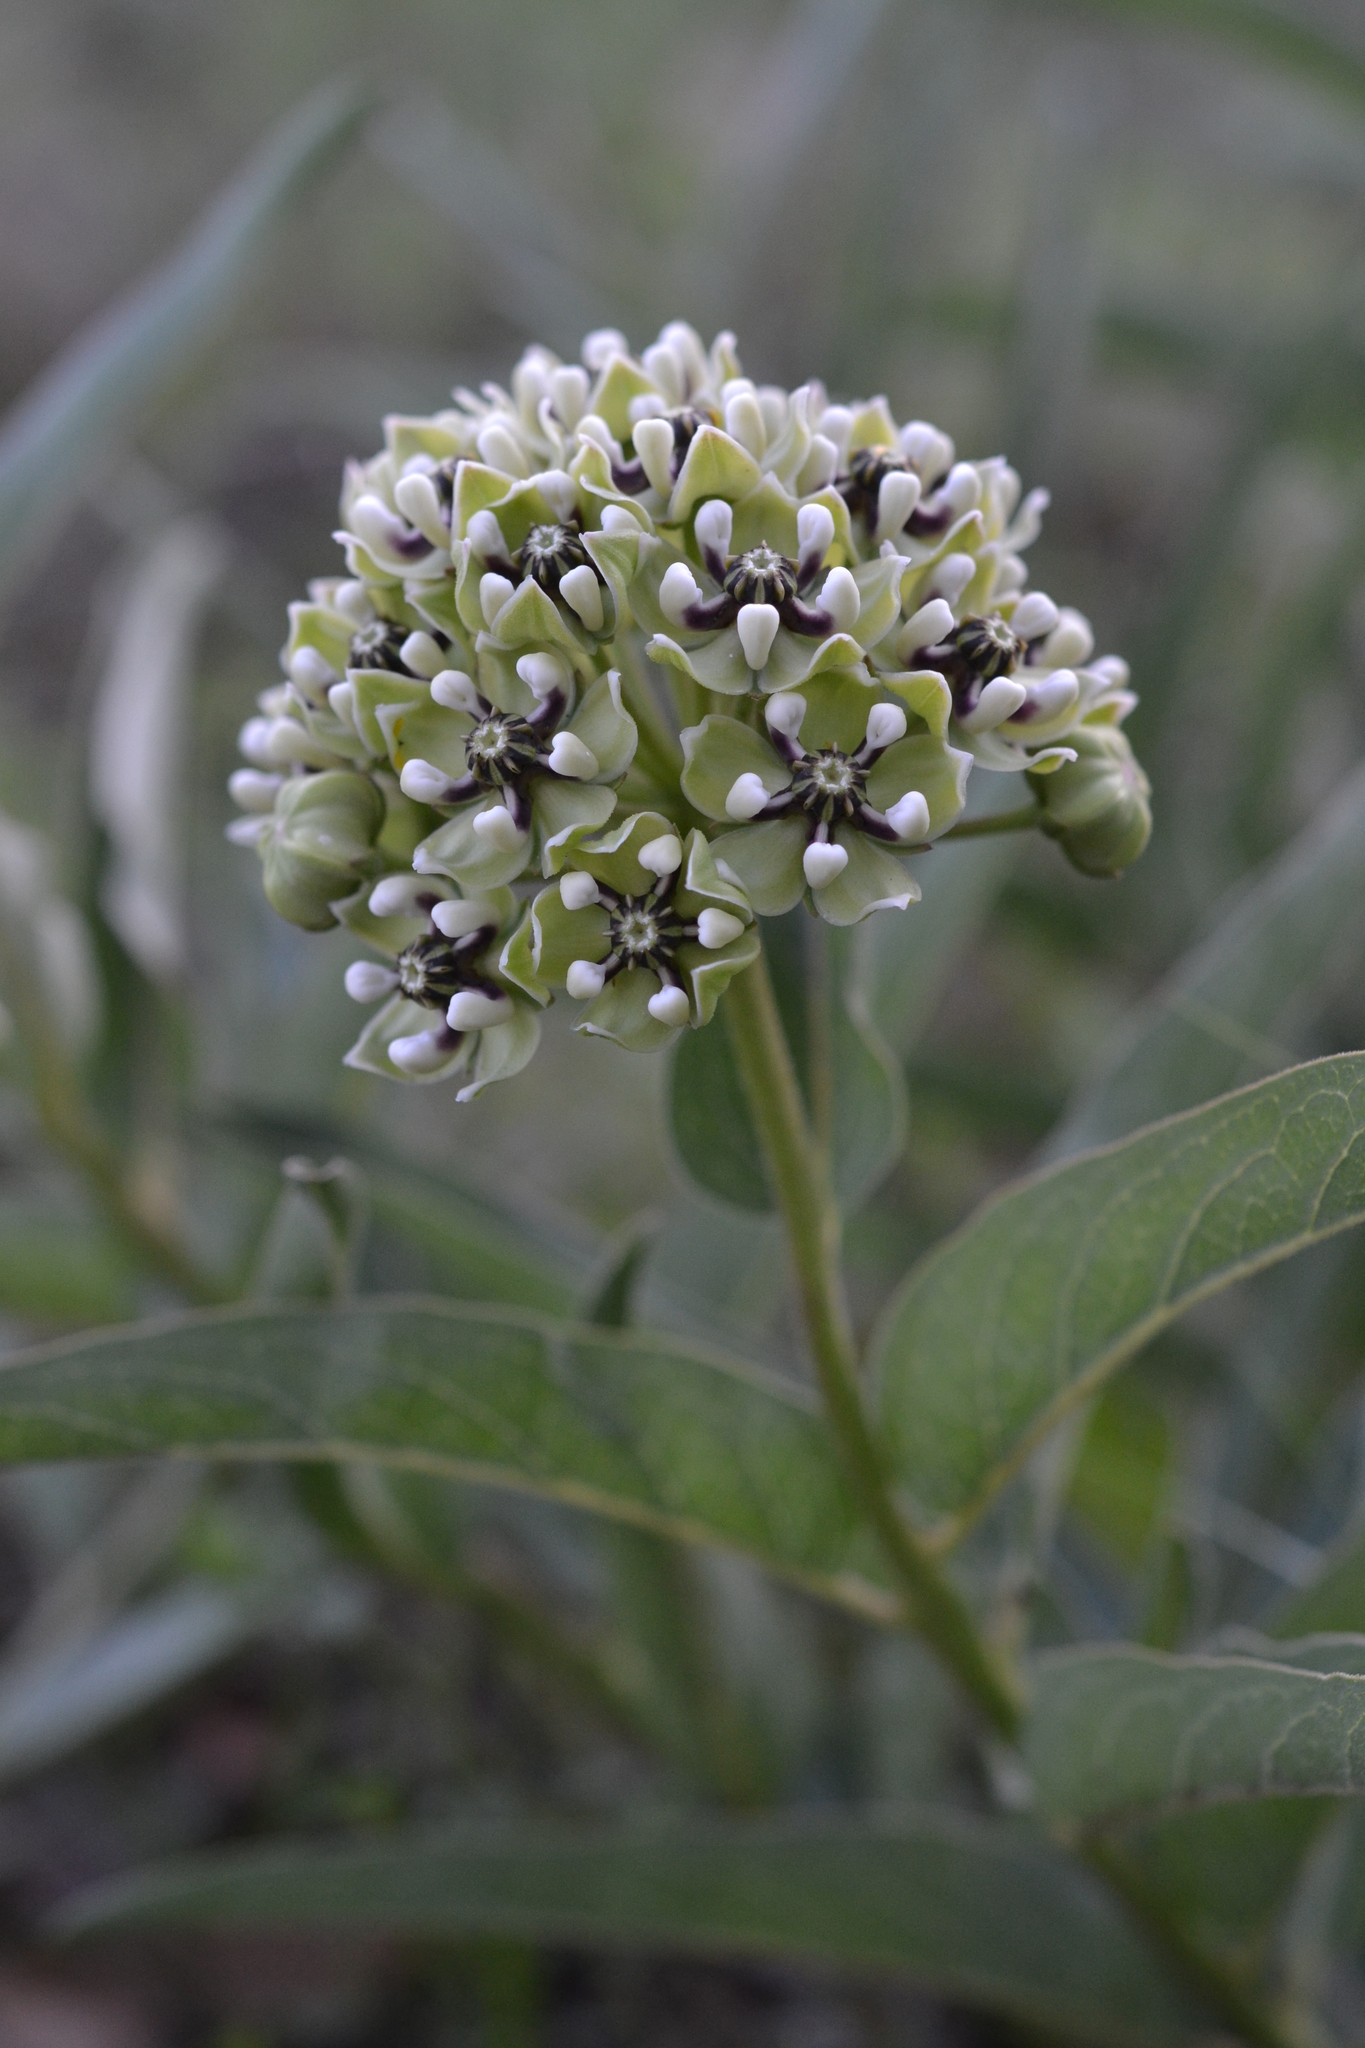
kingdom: Plantae
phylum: Tracheophyta
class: Magnoliopsida
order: Gentianales
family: Apocynaceae
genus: Asclepias
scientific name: Asclepias asperula
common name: Antelope horns
